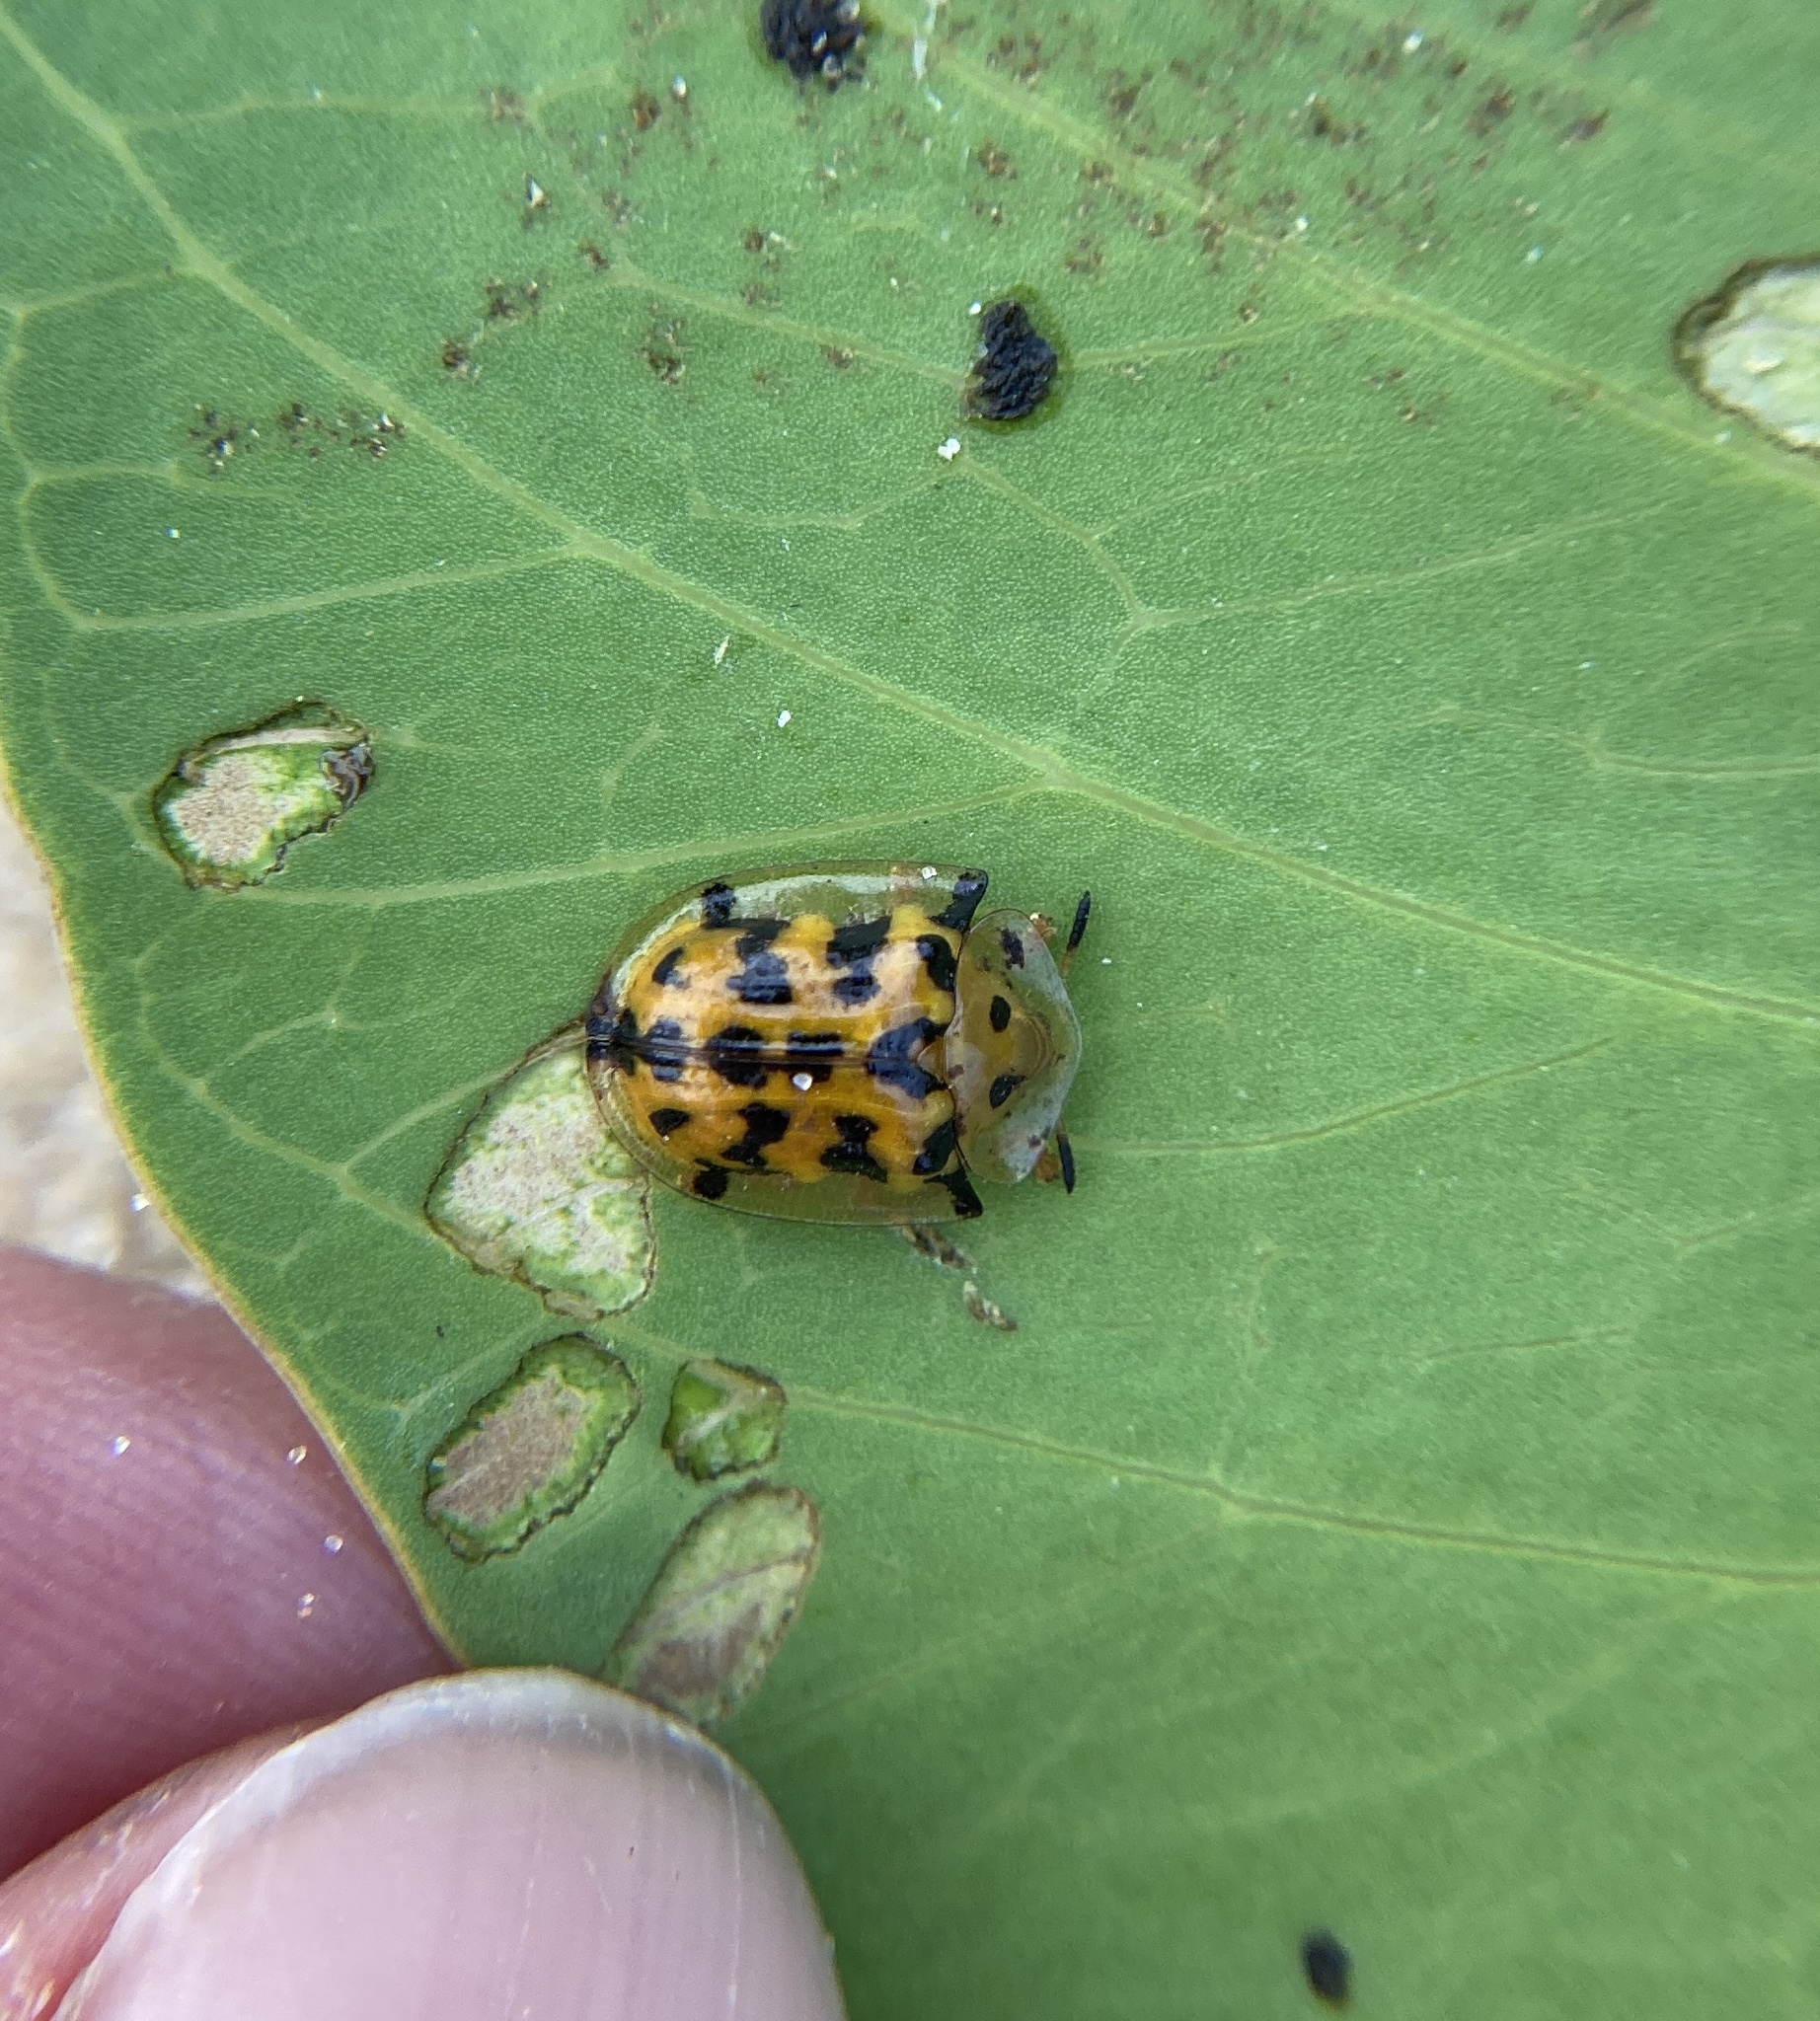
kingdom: Animalia
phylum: Arthropoda
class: Insecta
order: Coleoptera
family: Chrysomelidae
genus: Aspidimorpha
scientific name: Aspidimorpha deusta
